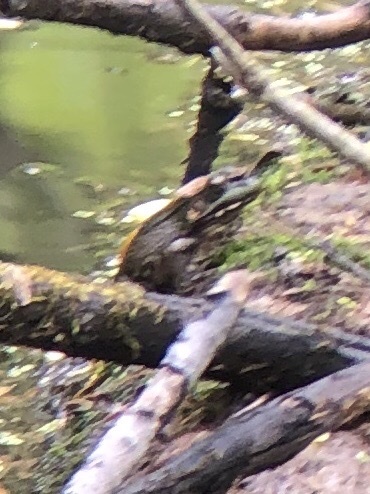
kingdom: Animalia
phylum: Chordata
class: Amphibia
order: Anura
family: Ranidae
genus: Lithobates
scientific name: Lithobates clamitans
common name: Green frog
